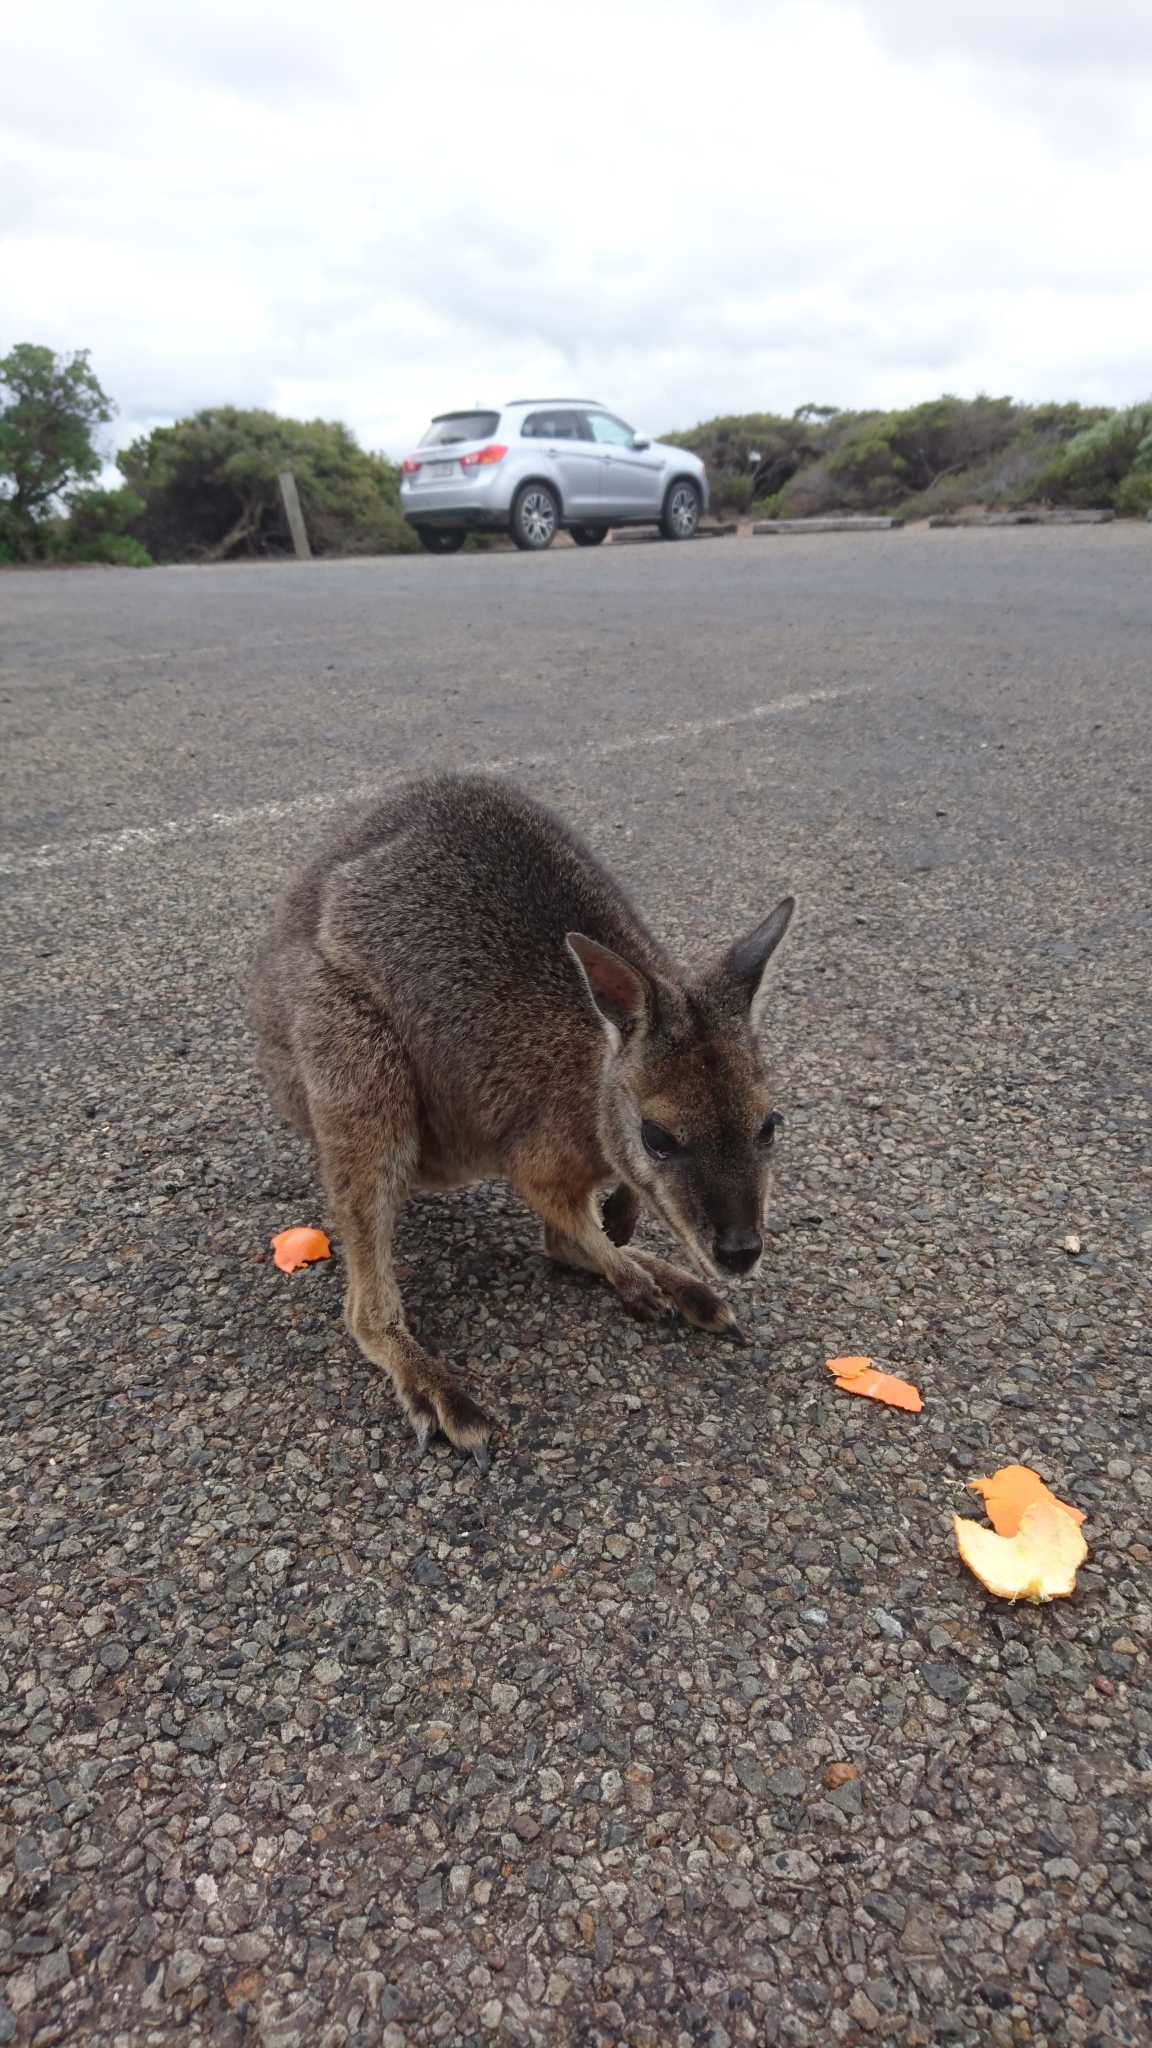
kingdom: Animalia
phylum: Chordata
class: Mammalia
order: Diprotodontia
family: Macropodidae
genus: Macropus
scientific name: Macropus eugenii
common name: Tammar wallaby
